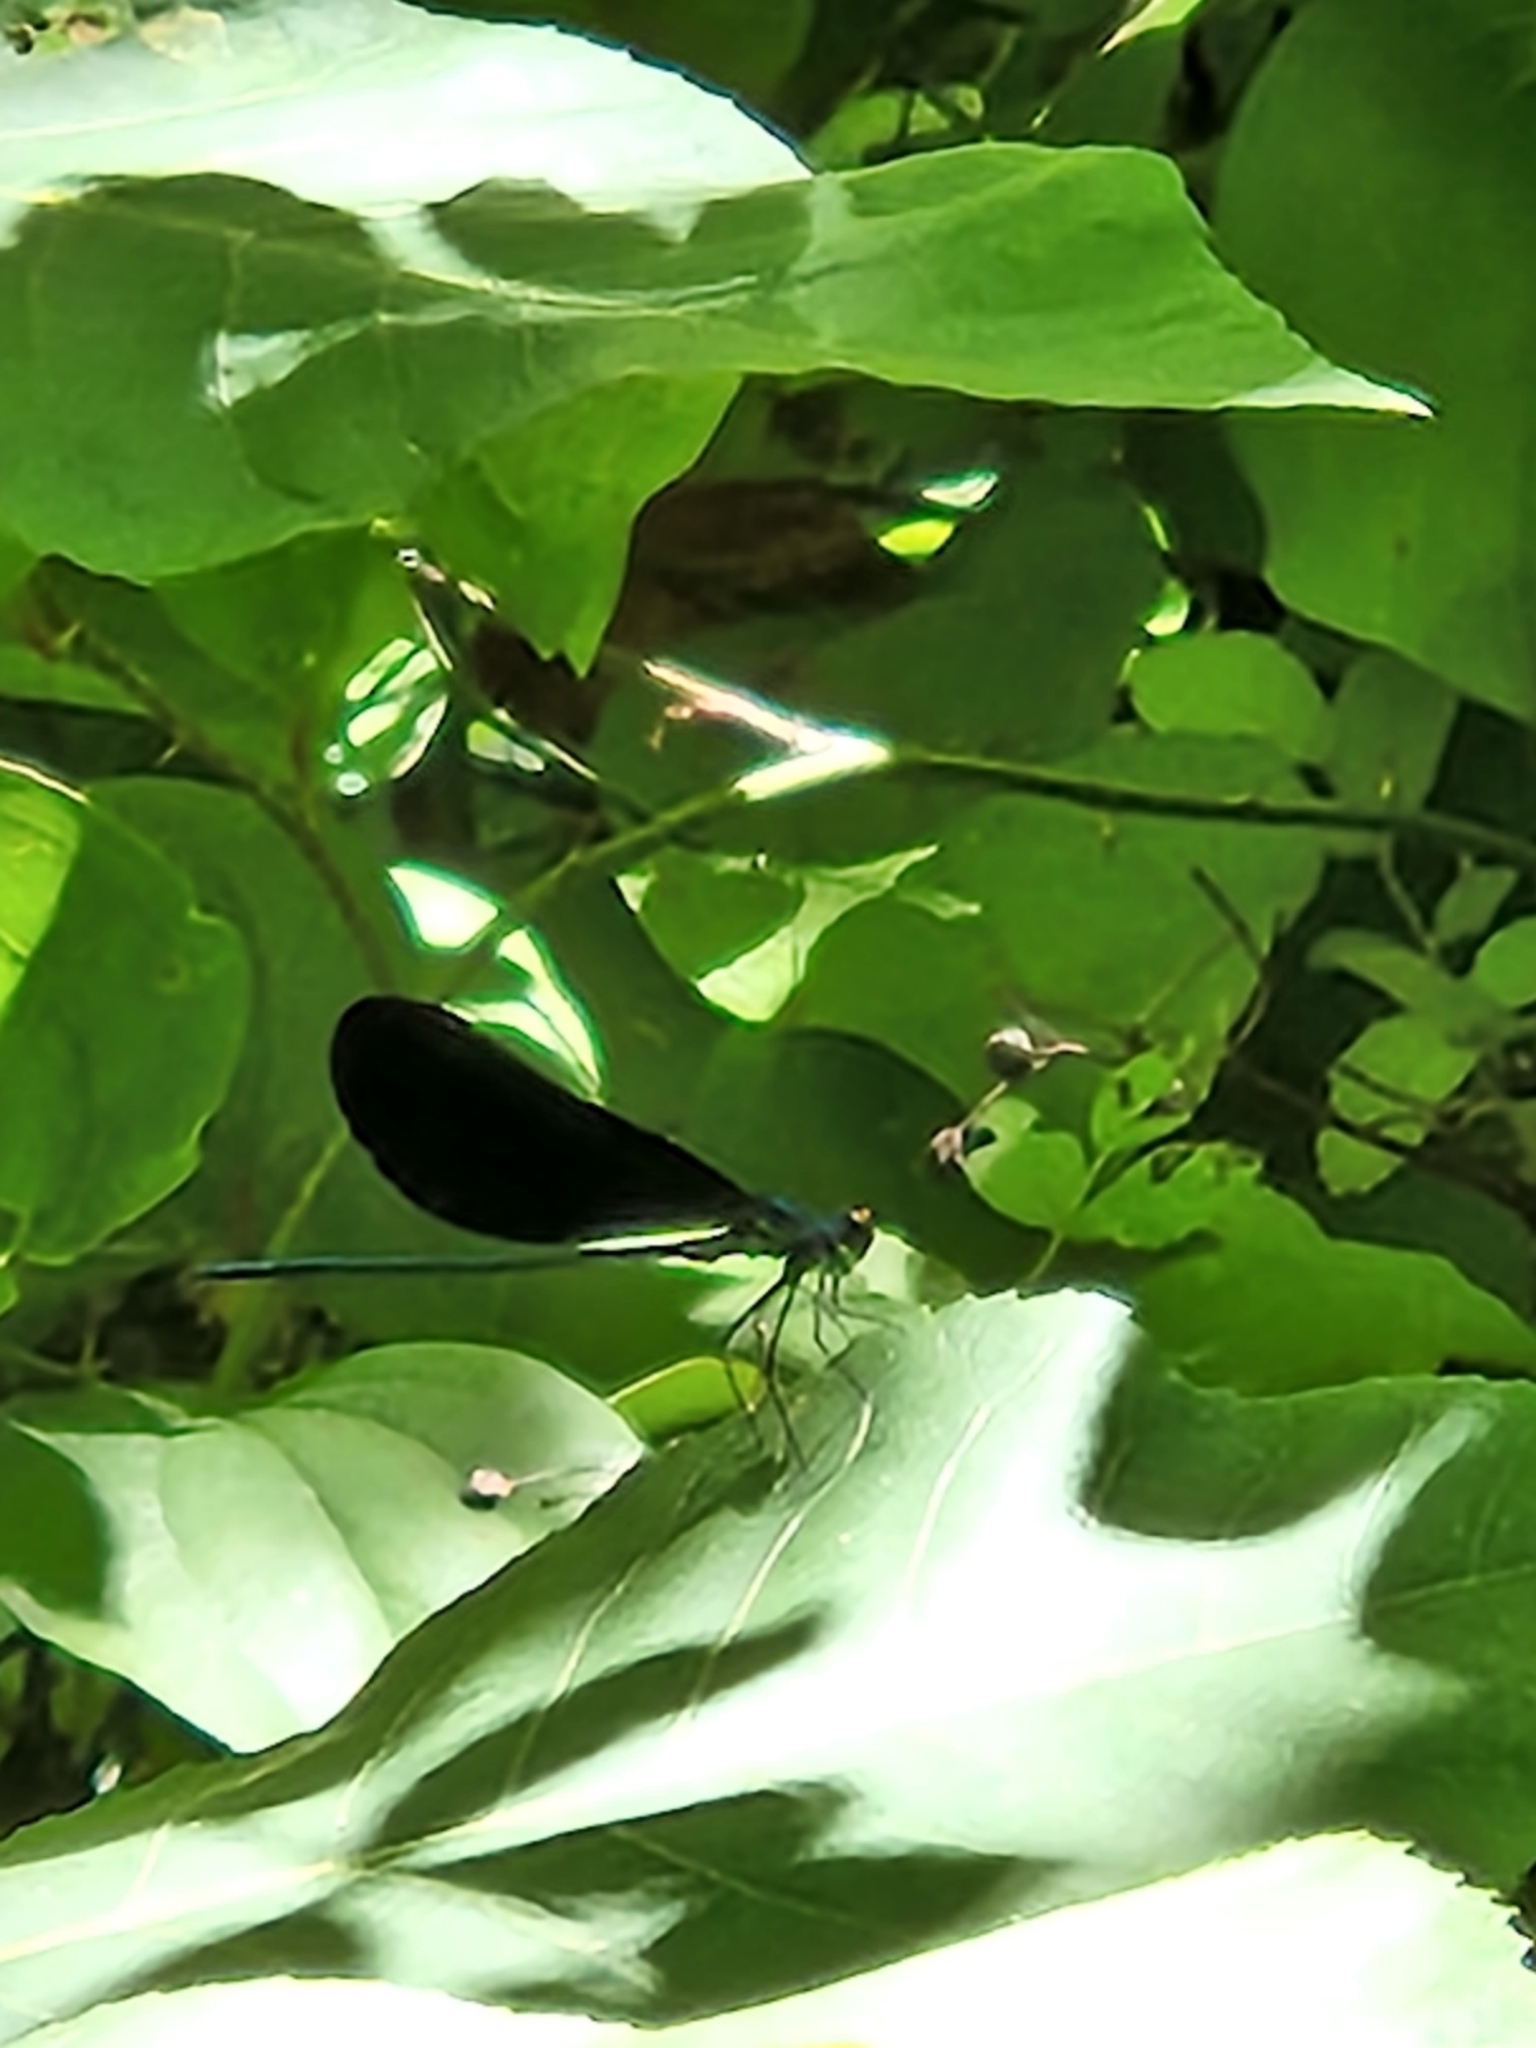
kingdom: Animalia
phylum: Arthropoda
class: Insecta
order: Odonata
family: Calopterygidae
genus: Calopteryx
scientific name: Calopteryx maculata
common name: Ebony jewelwing
